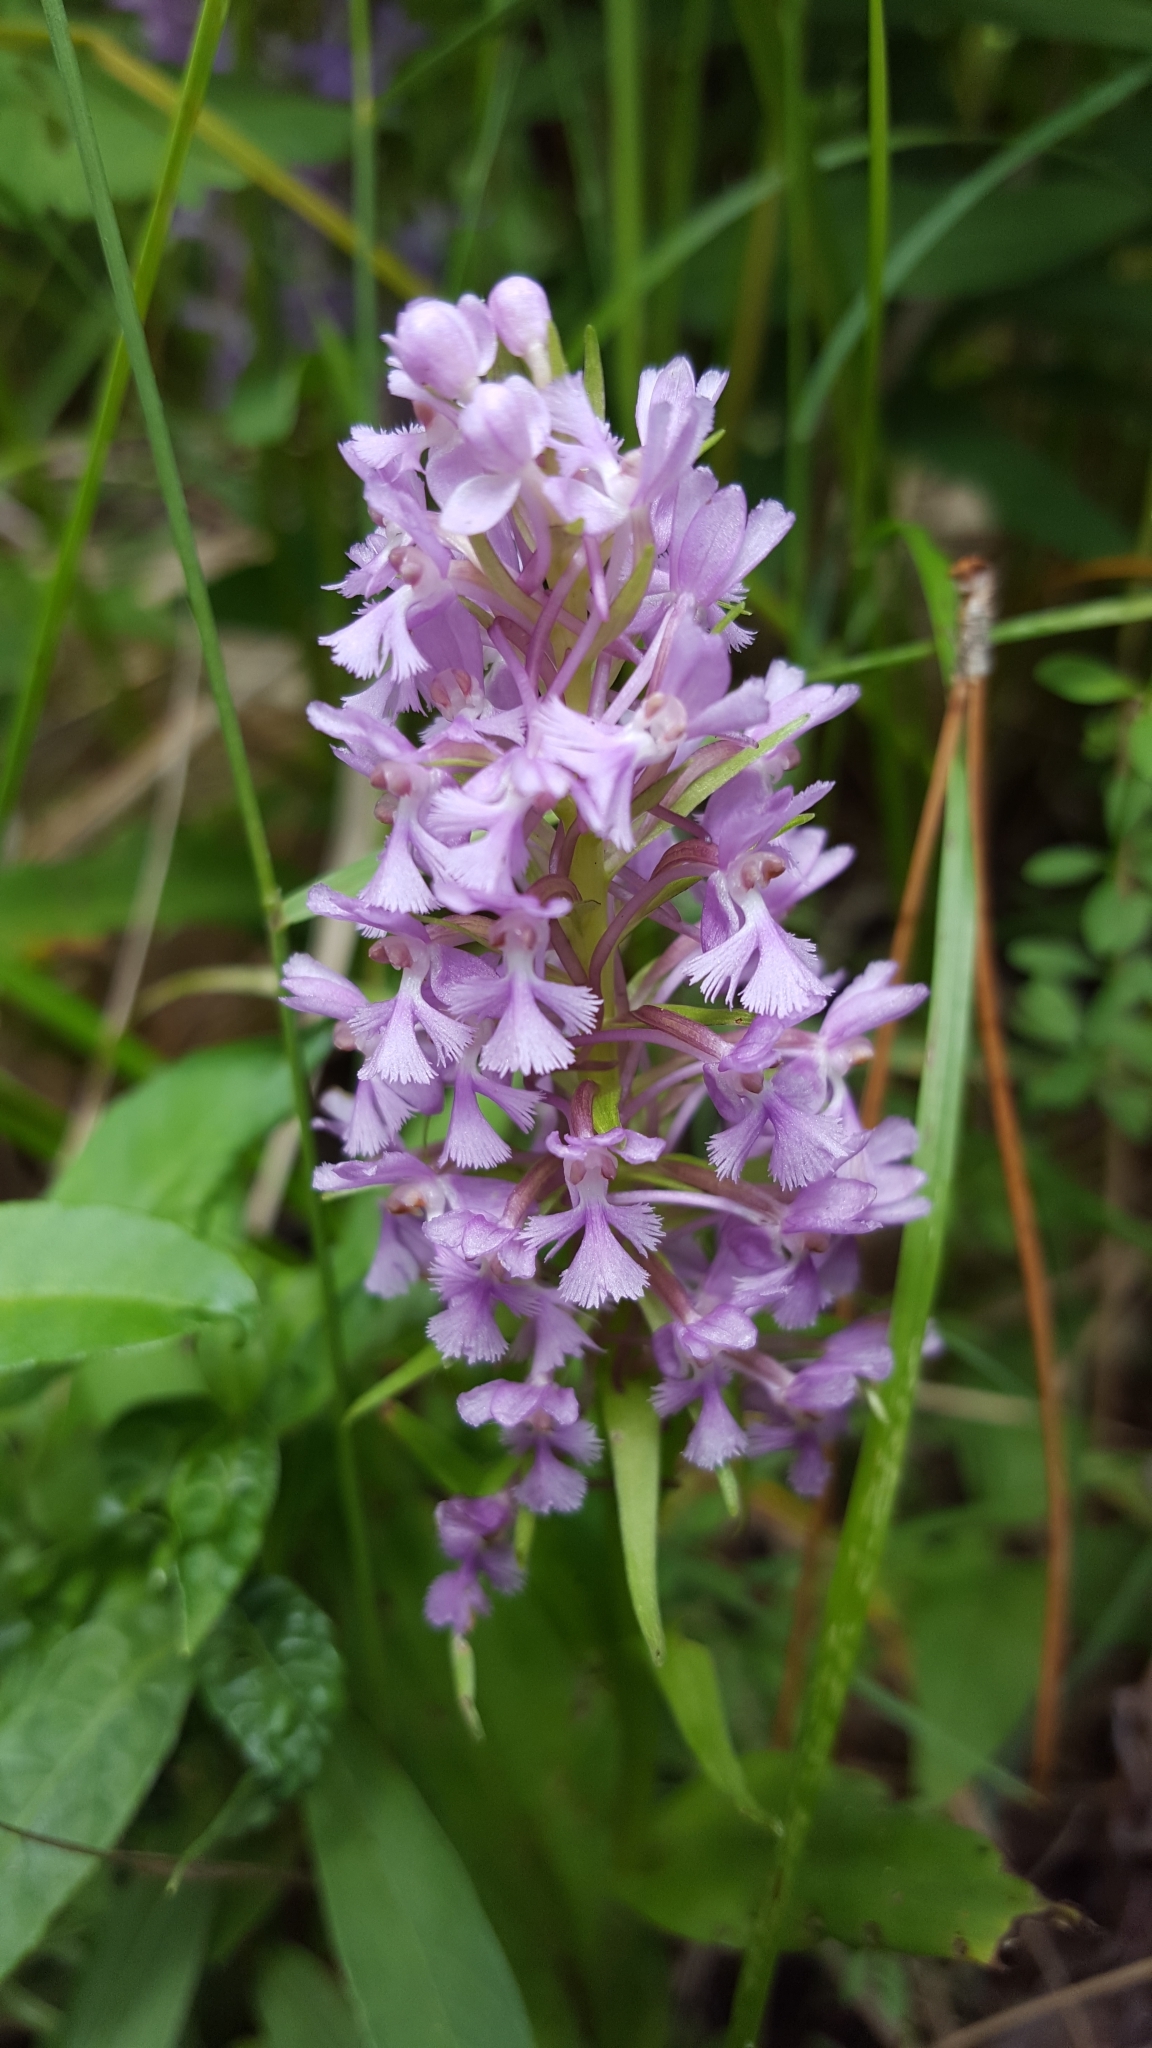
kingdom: Plantae
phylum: Tracheophyta
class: Liliopsida
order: Asparagales
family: Orchidaceae
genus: Platanthera
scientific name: Platanthera psycodes
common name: Lesser purple fringed orchid
